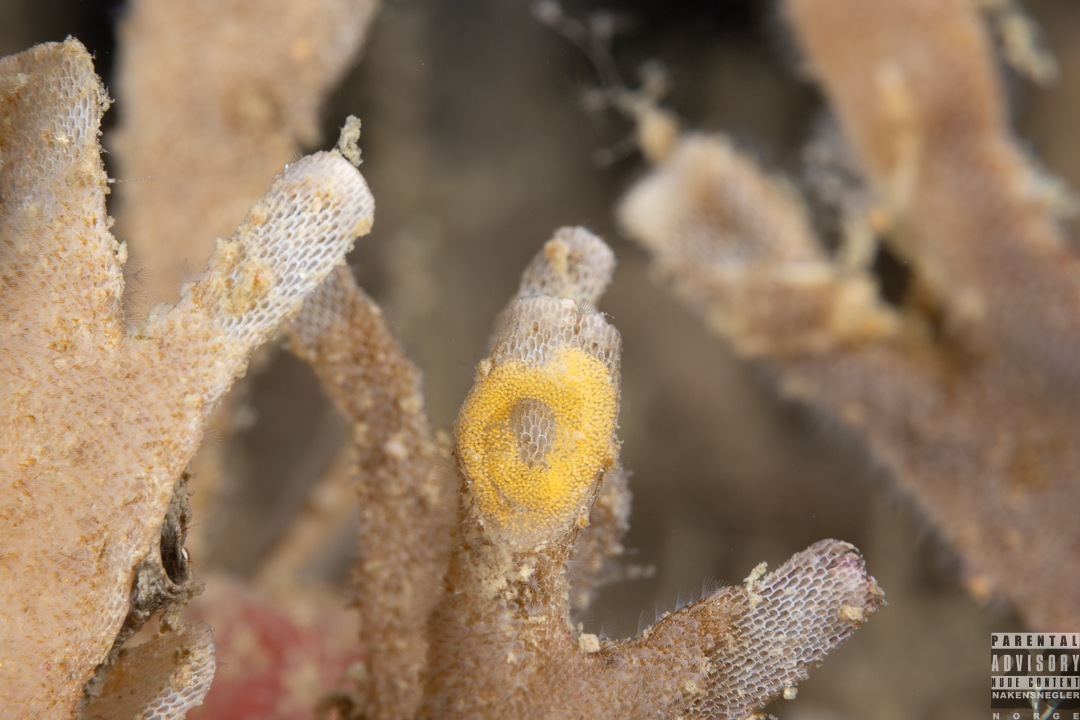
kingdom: Animalia
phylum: Mollusca
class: Gastropoda
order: Nudibranchia
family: Polyceridae
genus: Crimora
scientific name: Crimora papillata
